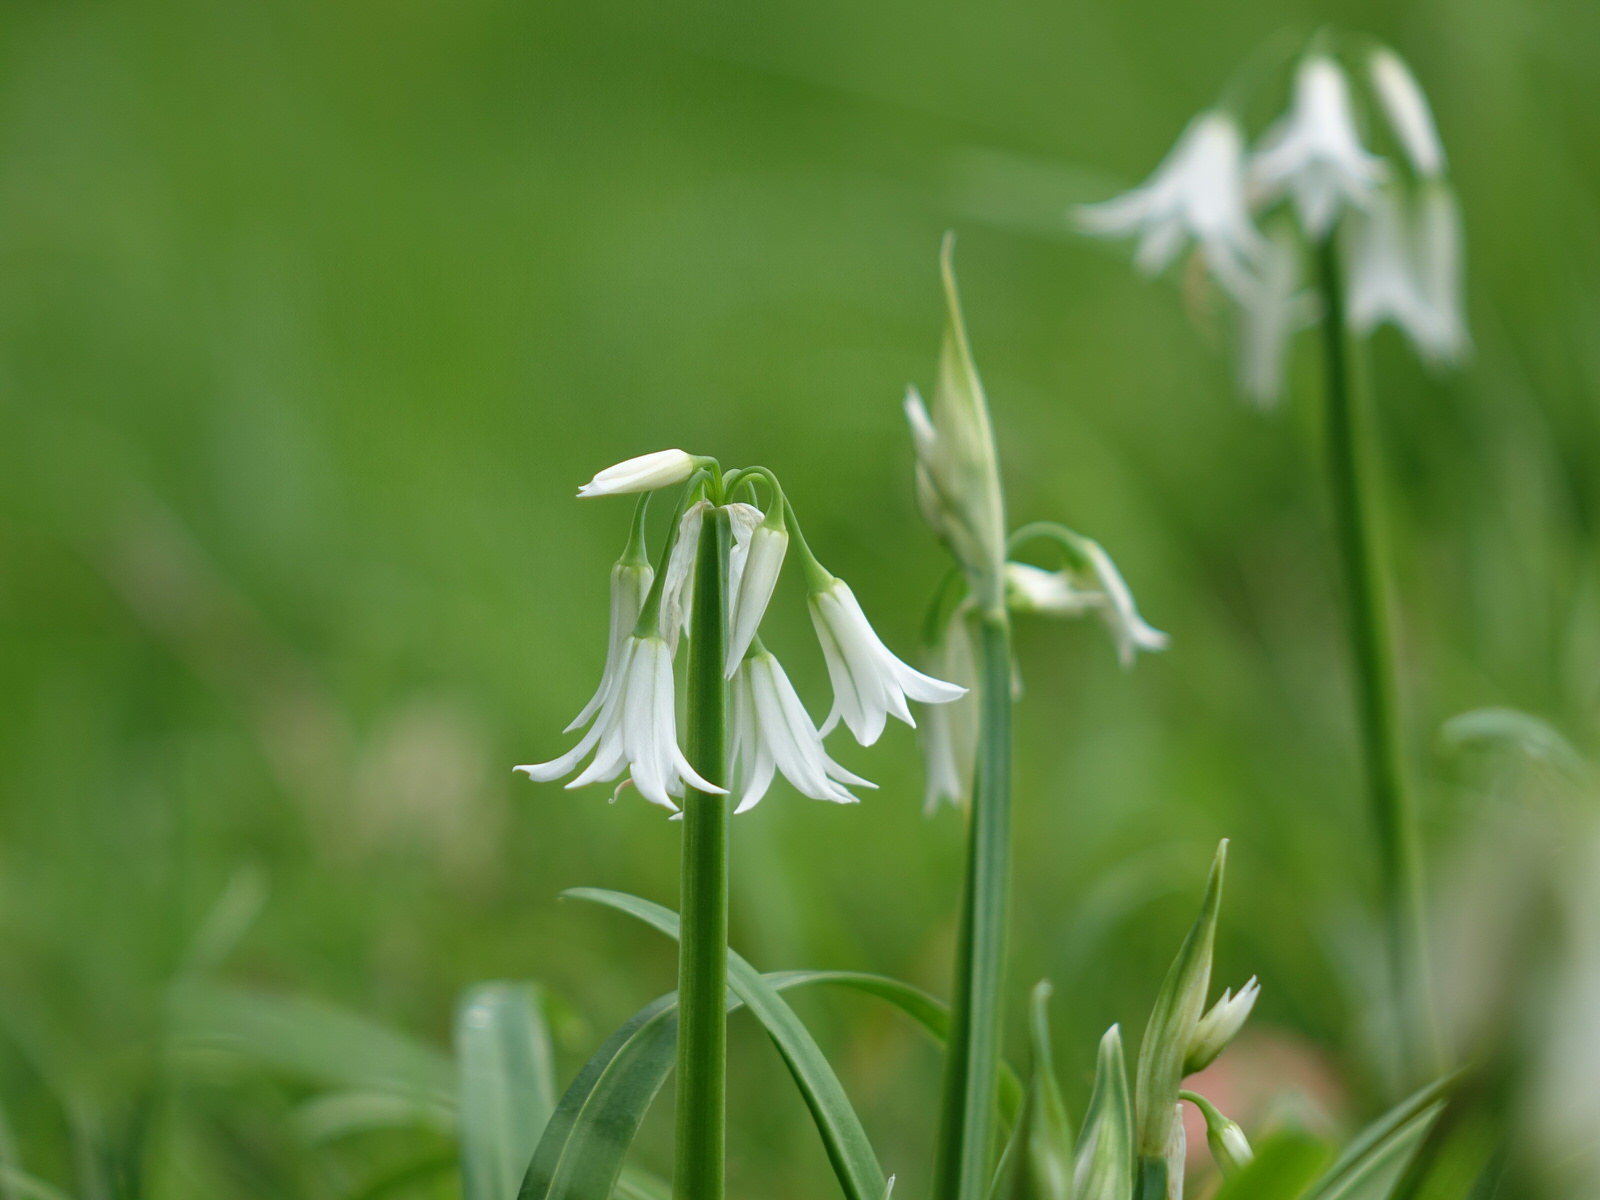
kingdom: Plantae
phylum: Tracheophyta
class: Liliopsida
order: Asparagales
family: Amaryllidaceae
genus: Allium
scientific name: Allium triquetrum
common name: Three-cornered garlic
